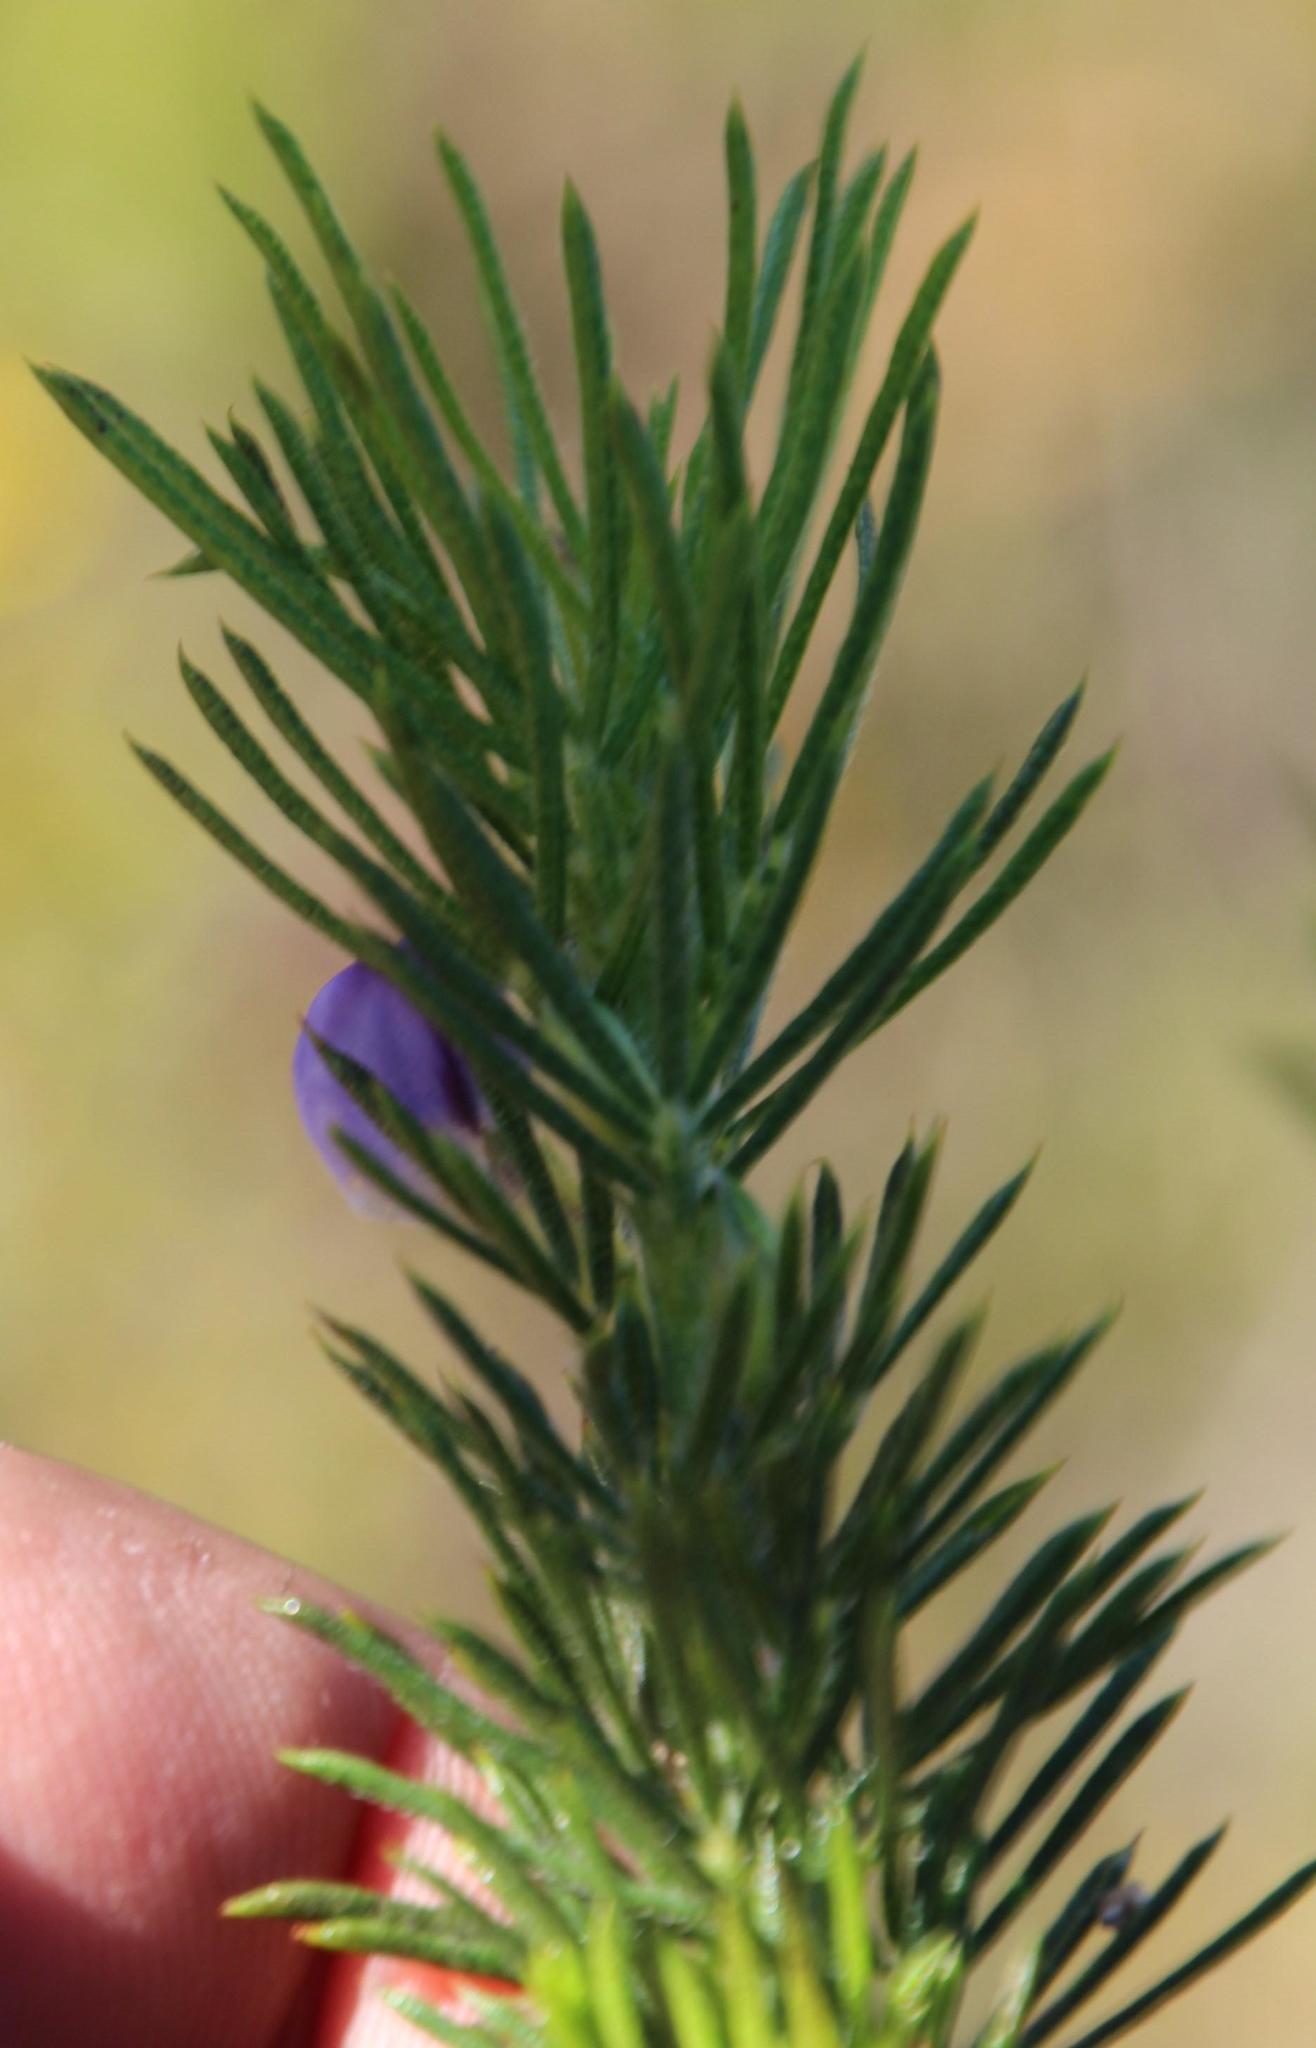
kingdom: Plantae
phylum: Tracheophyta
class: Magnoliopsida
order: Fabales
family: Fabaceae
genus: Psoralea
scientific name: Psoralea pinnata
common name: African scurfpea
